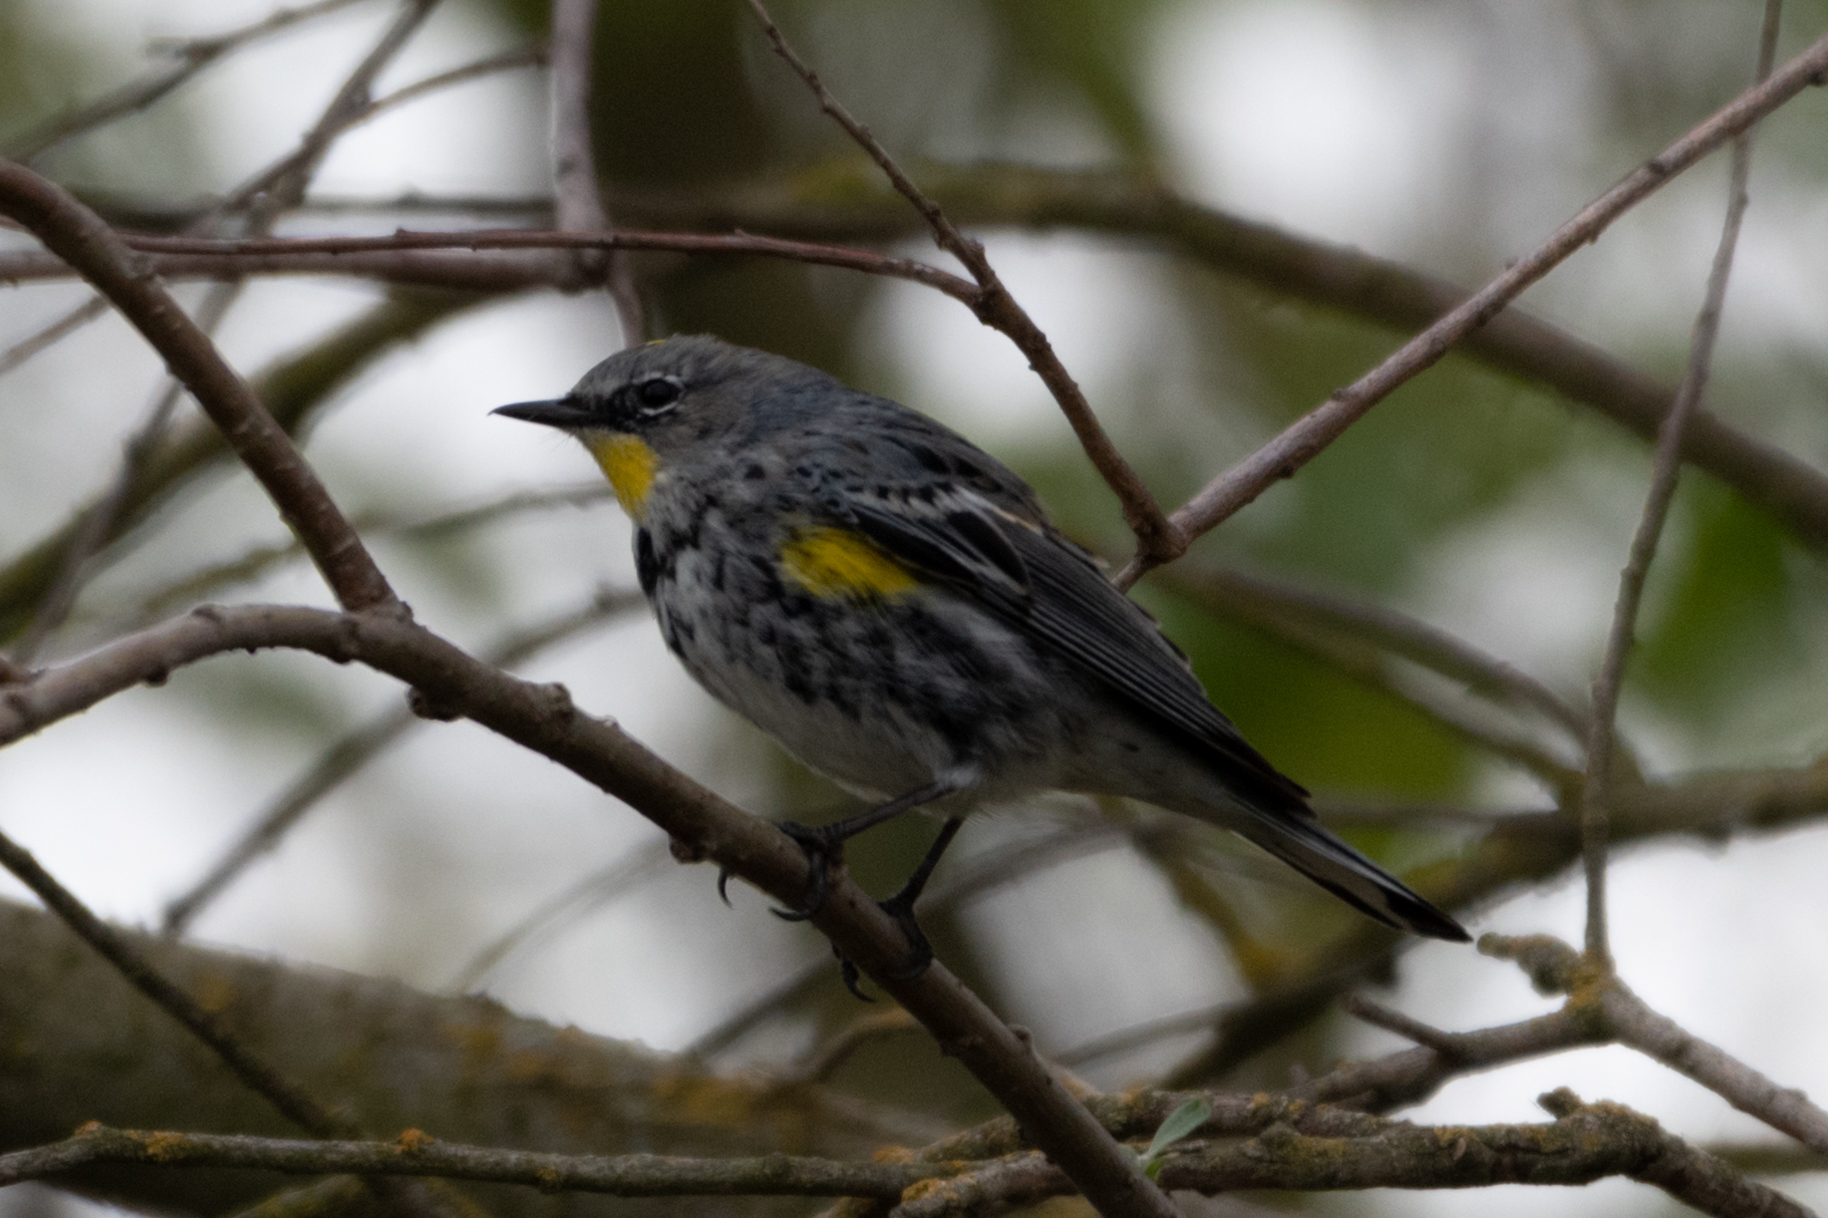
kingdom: Animalia
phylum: Chordata
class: Aves
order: Passeriformes
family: Parulidae
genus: Setophaga
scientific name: Setophaga coronata
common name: Myrtle warbler
